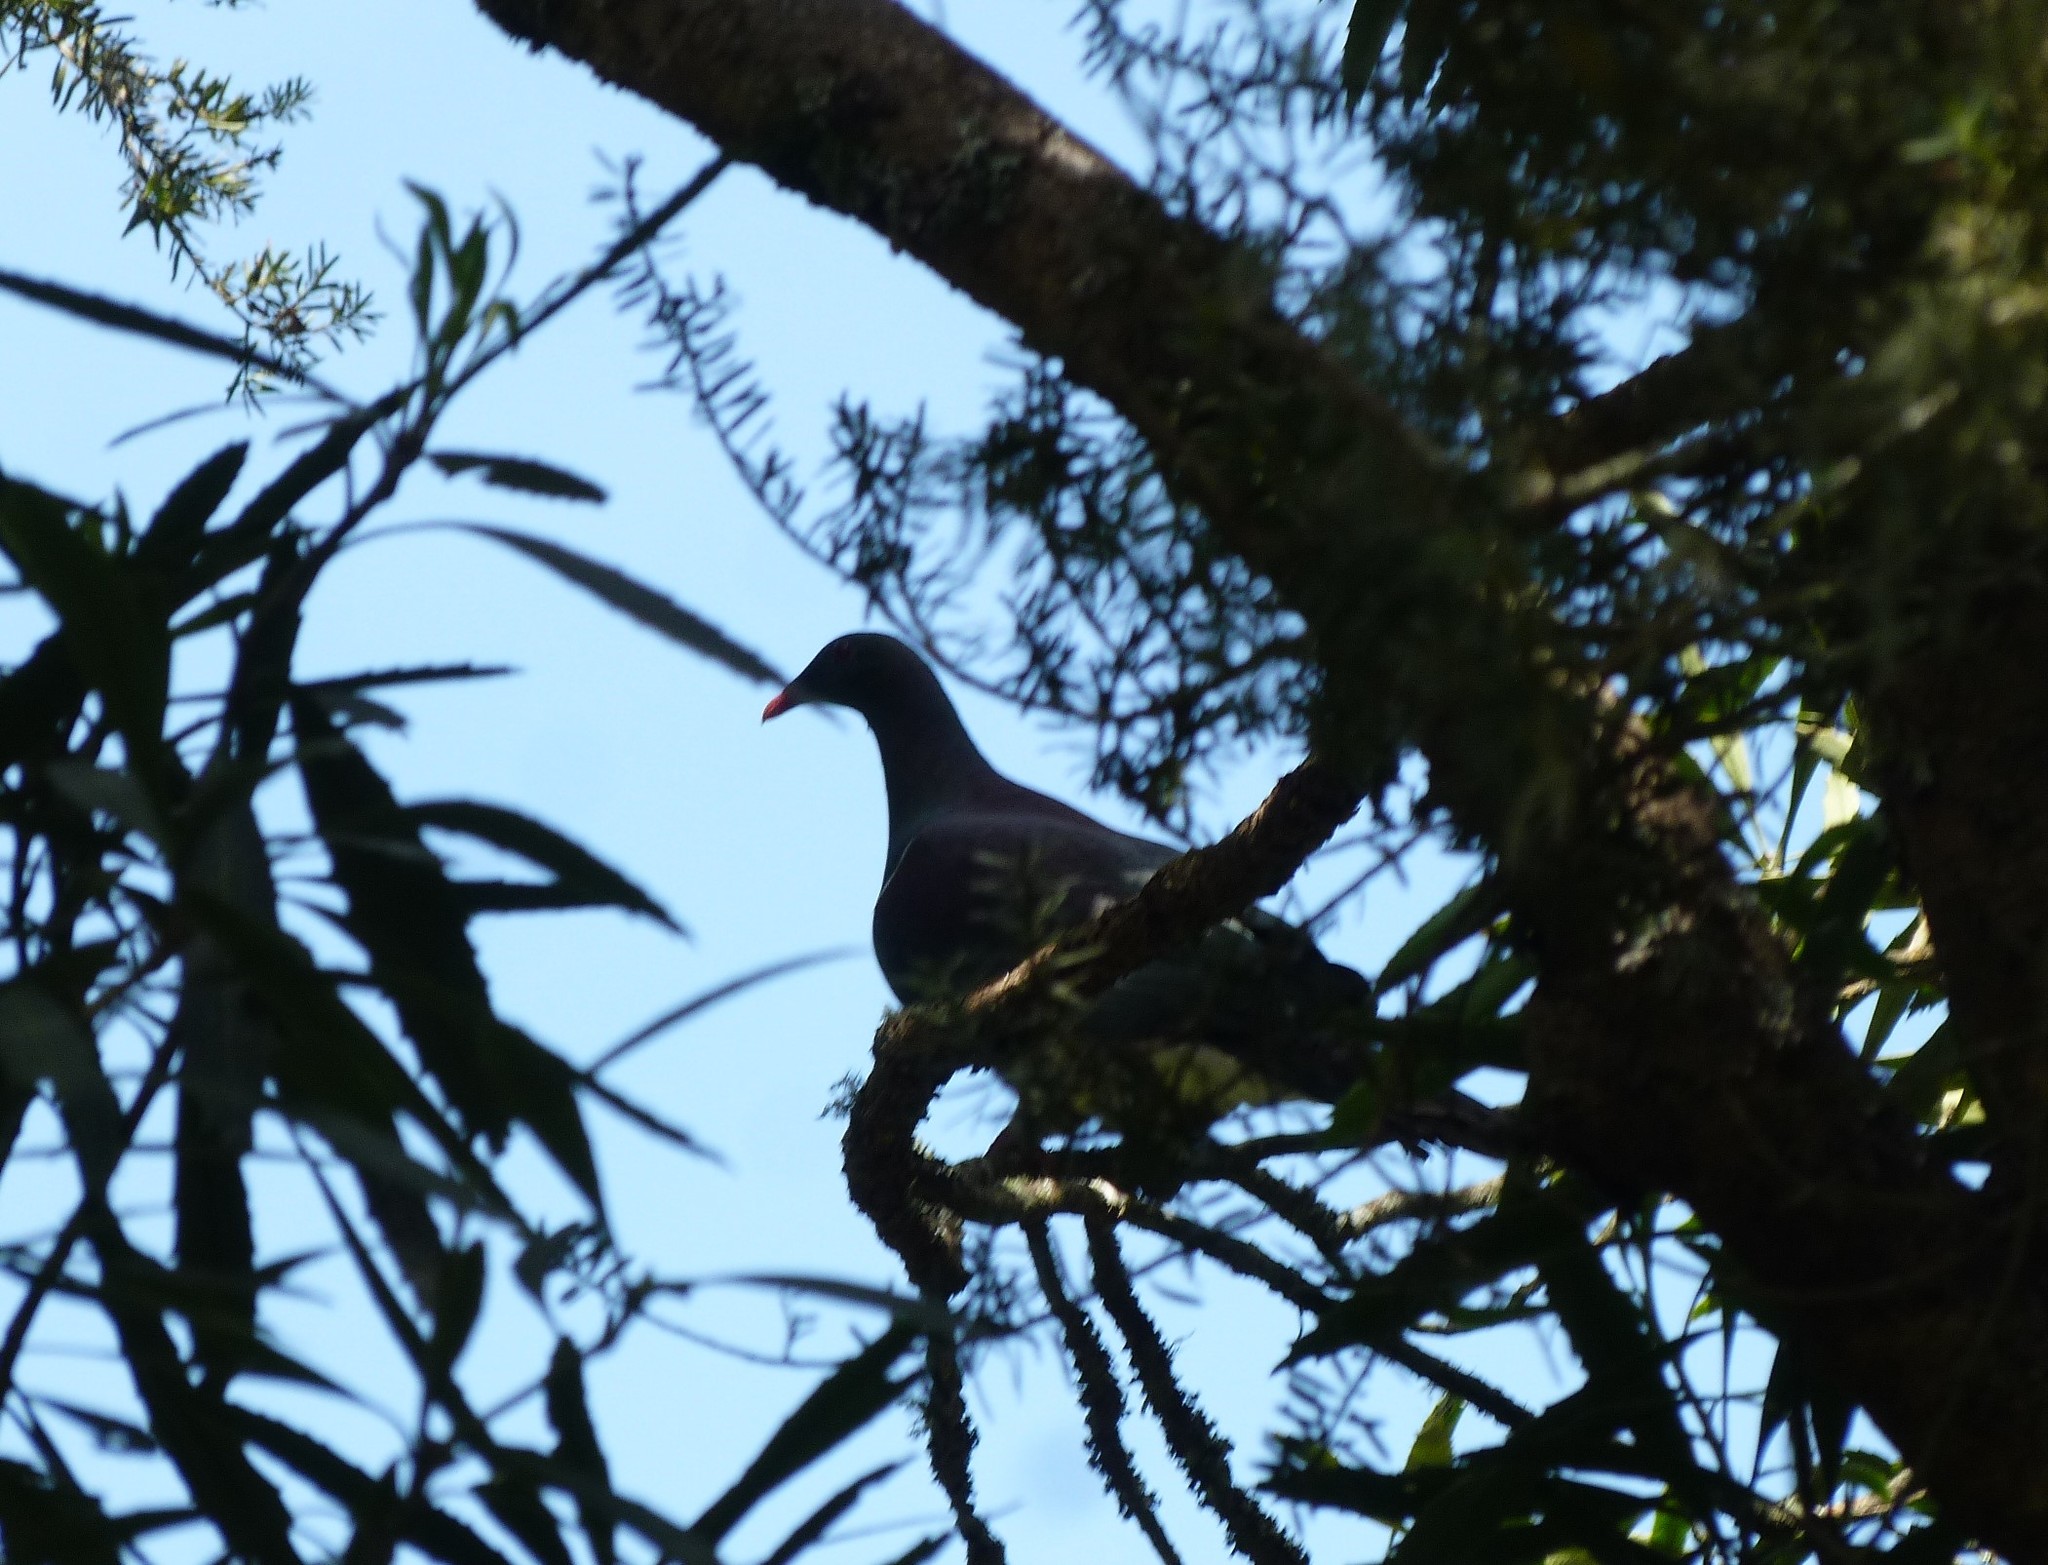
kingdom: Animalia
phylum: Chordata
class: Aves
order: Columbiformes
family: Columbidae
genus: Hemiphaga
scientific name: Hemiphaga novaeseelandiae
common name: New zealand pigeon
